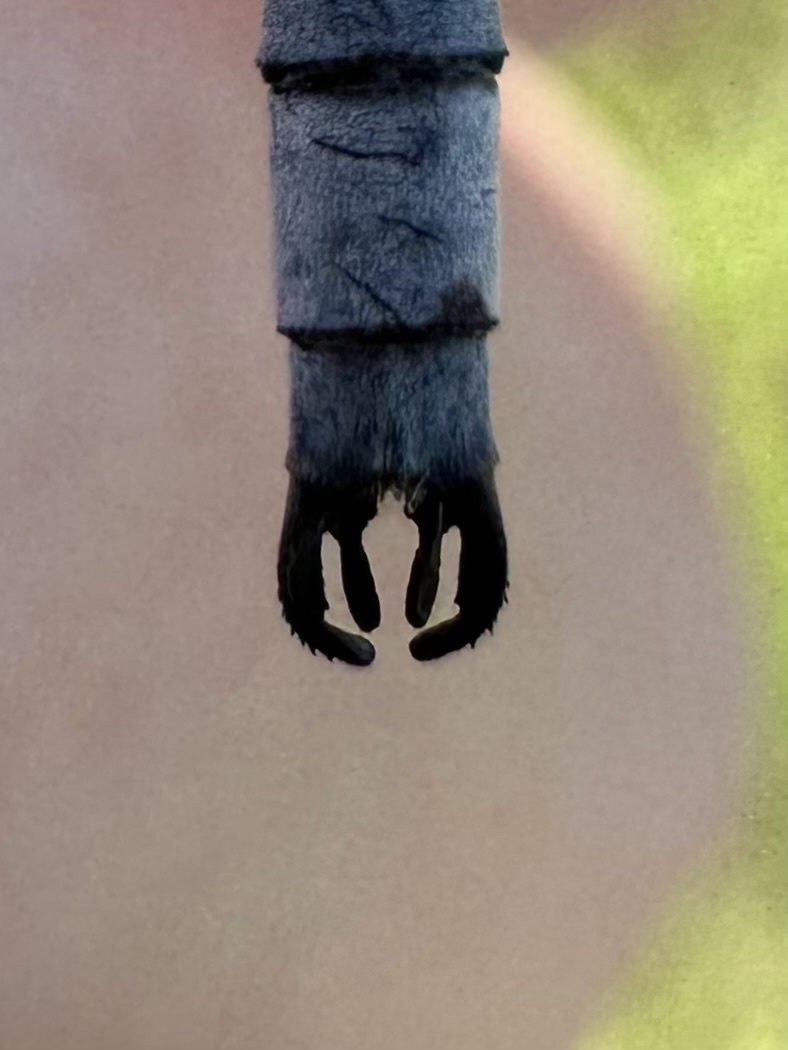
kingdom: Animalia
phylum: Arthropoda
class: Insecta
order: Odonata
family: Lestidae
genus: Lestes
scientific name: Lestes forcipatus
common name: Sweetflag spreadwing
